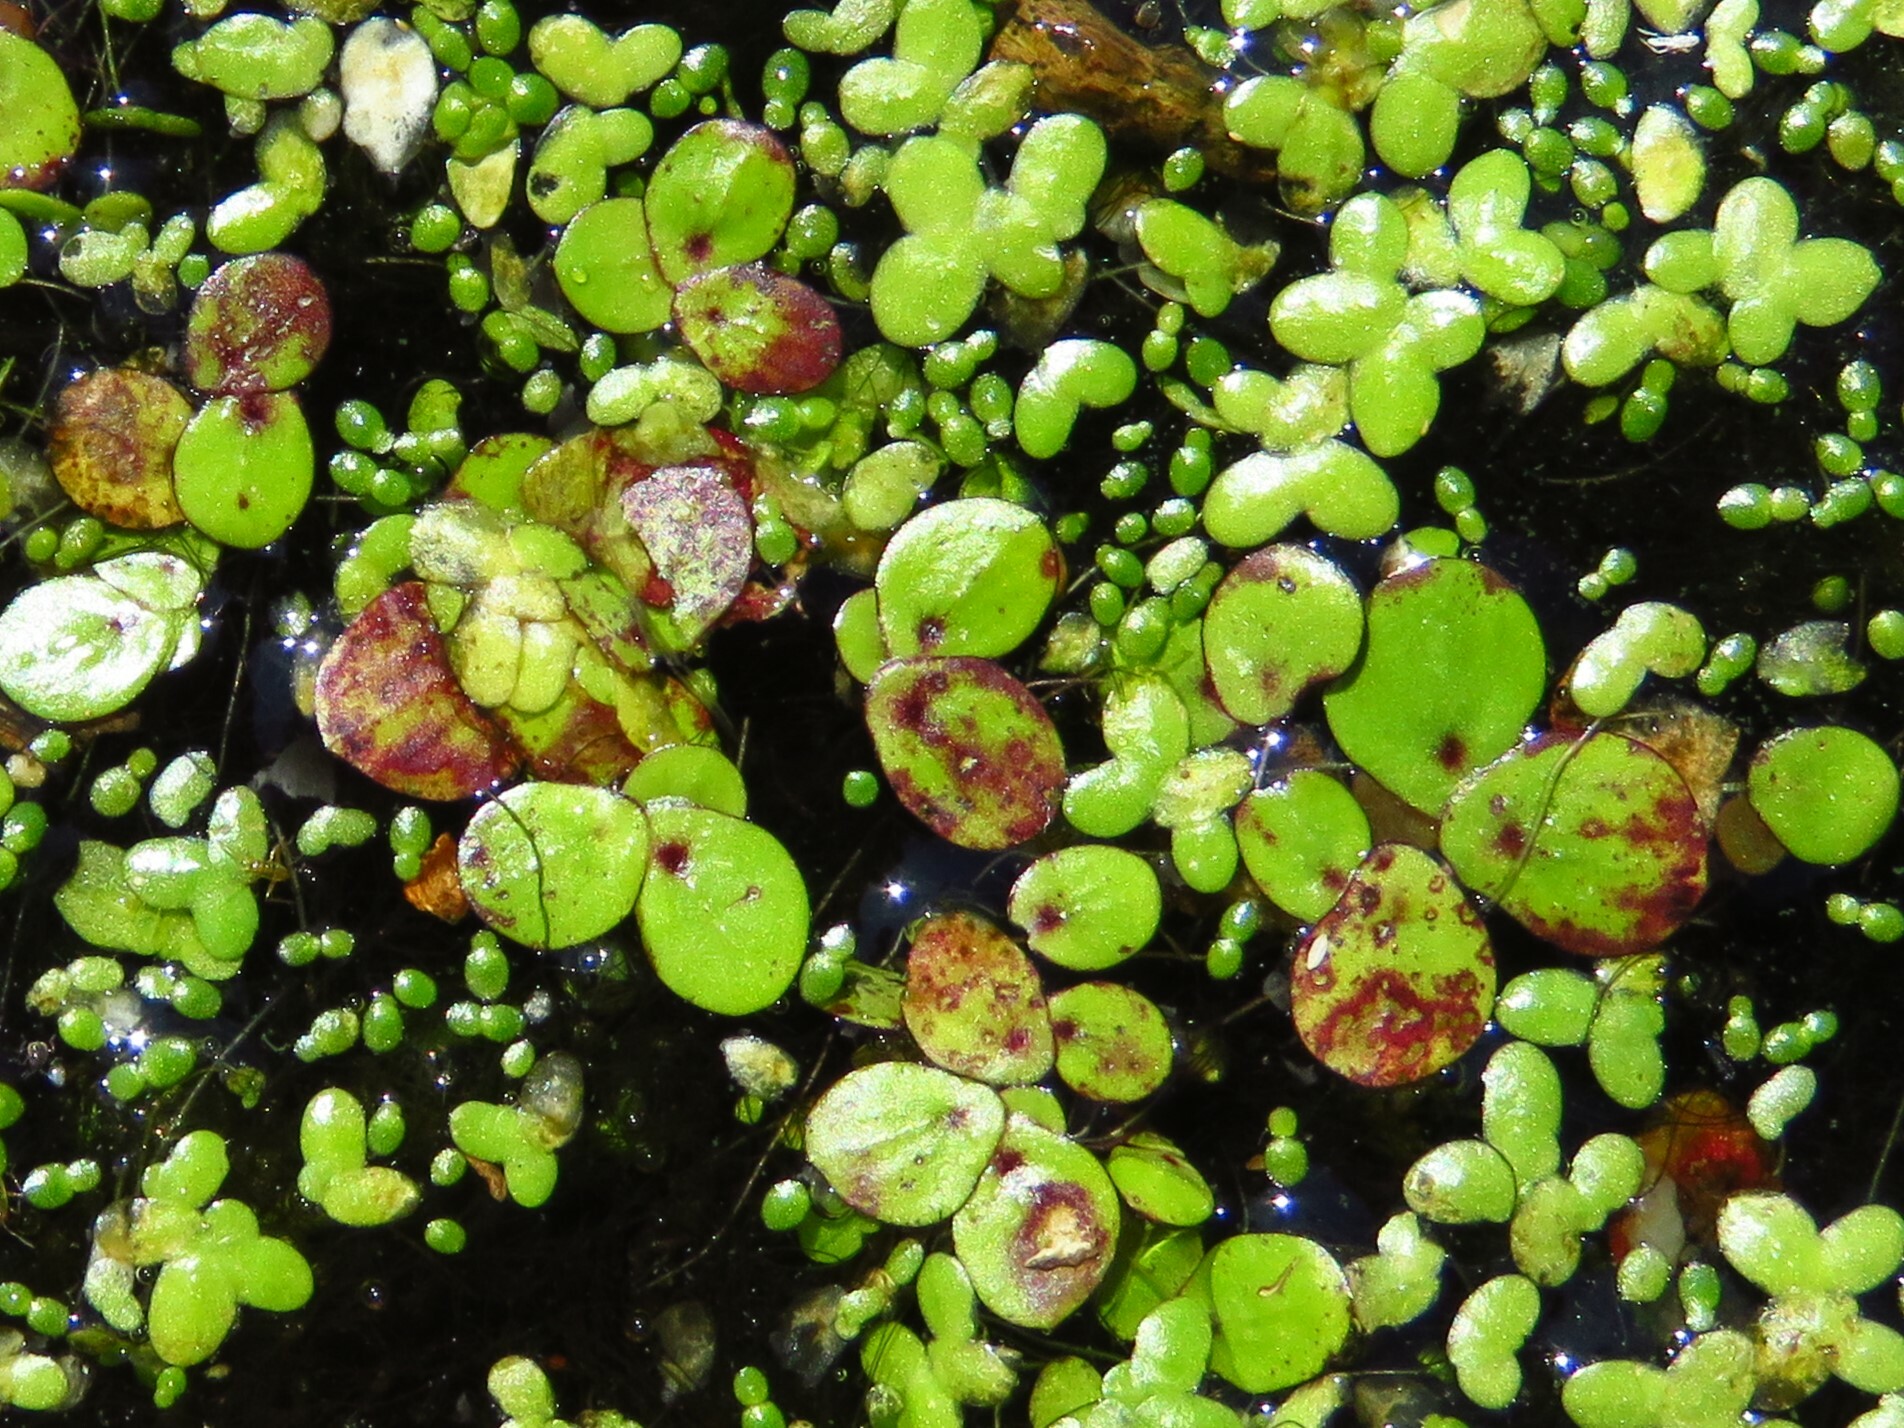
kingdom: Plantae
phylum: Tracheophyta
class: Liliopsida
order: Alismatales
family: Araceae
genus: Spirodela
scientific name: Spirodela polyrhiza
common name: Great duckweed
